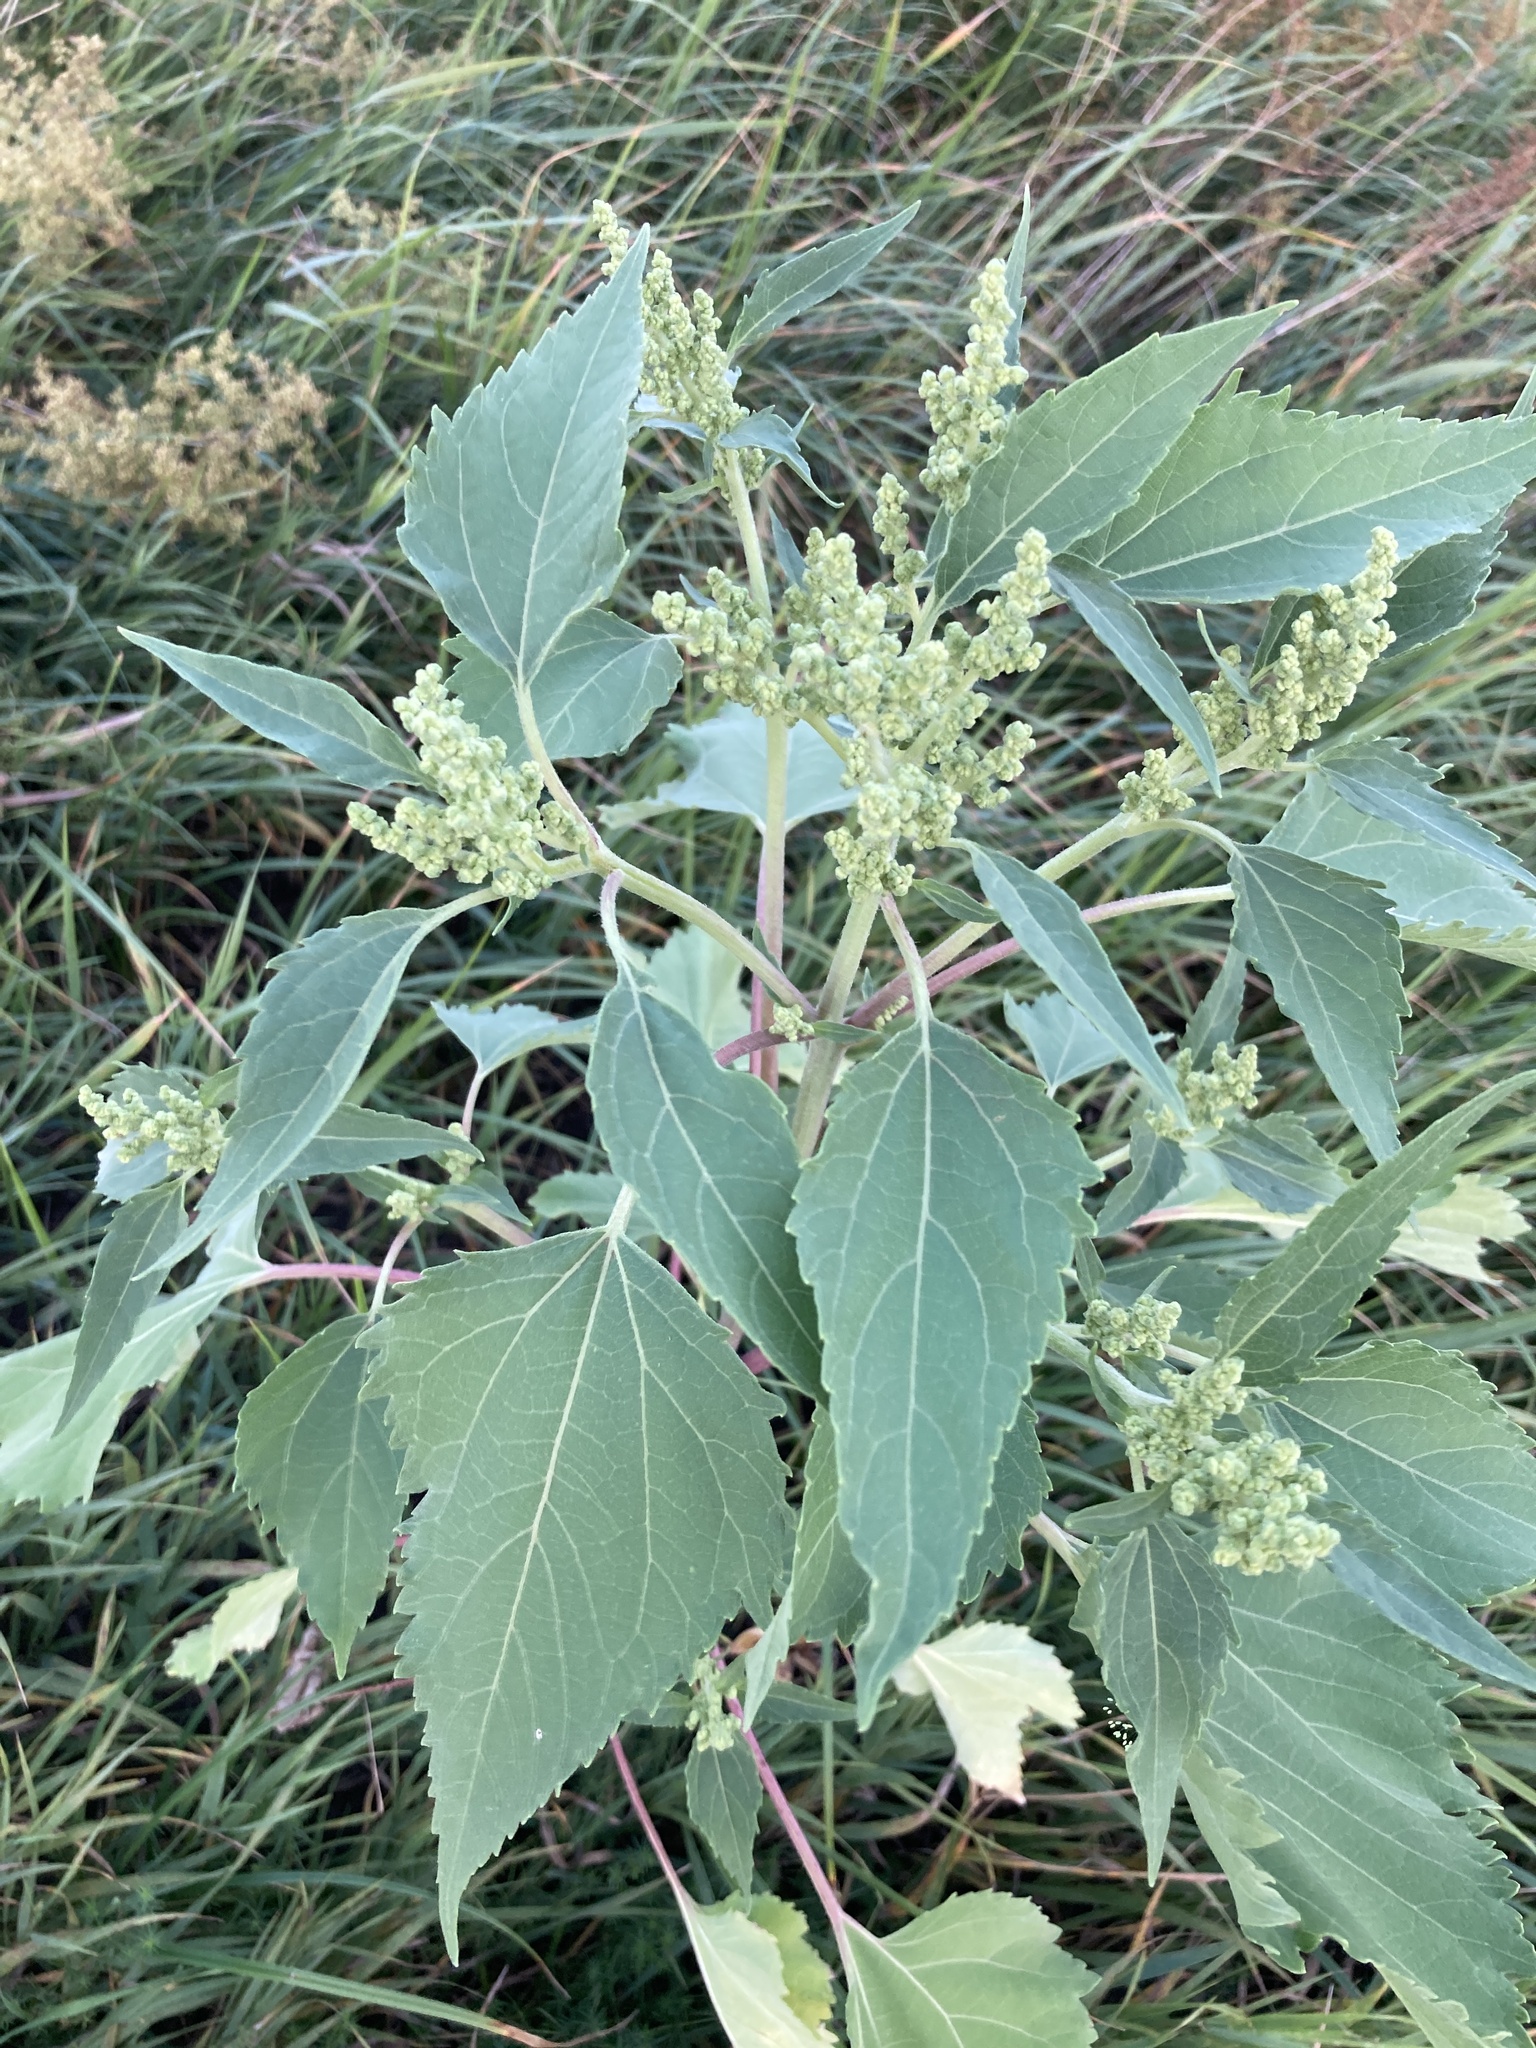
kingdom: Plantae
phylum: Tracheophyta
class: Magnoliopsida
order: Asterales
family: Asteraceae
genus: Cyclachaena
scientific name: Cyclachaena xanthiifolia
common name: Giant sumpweed
